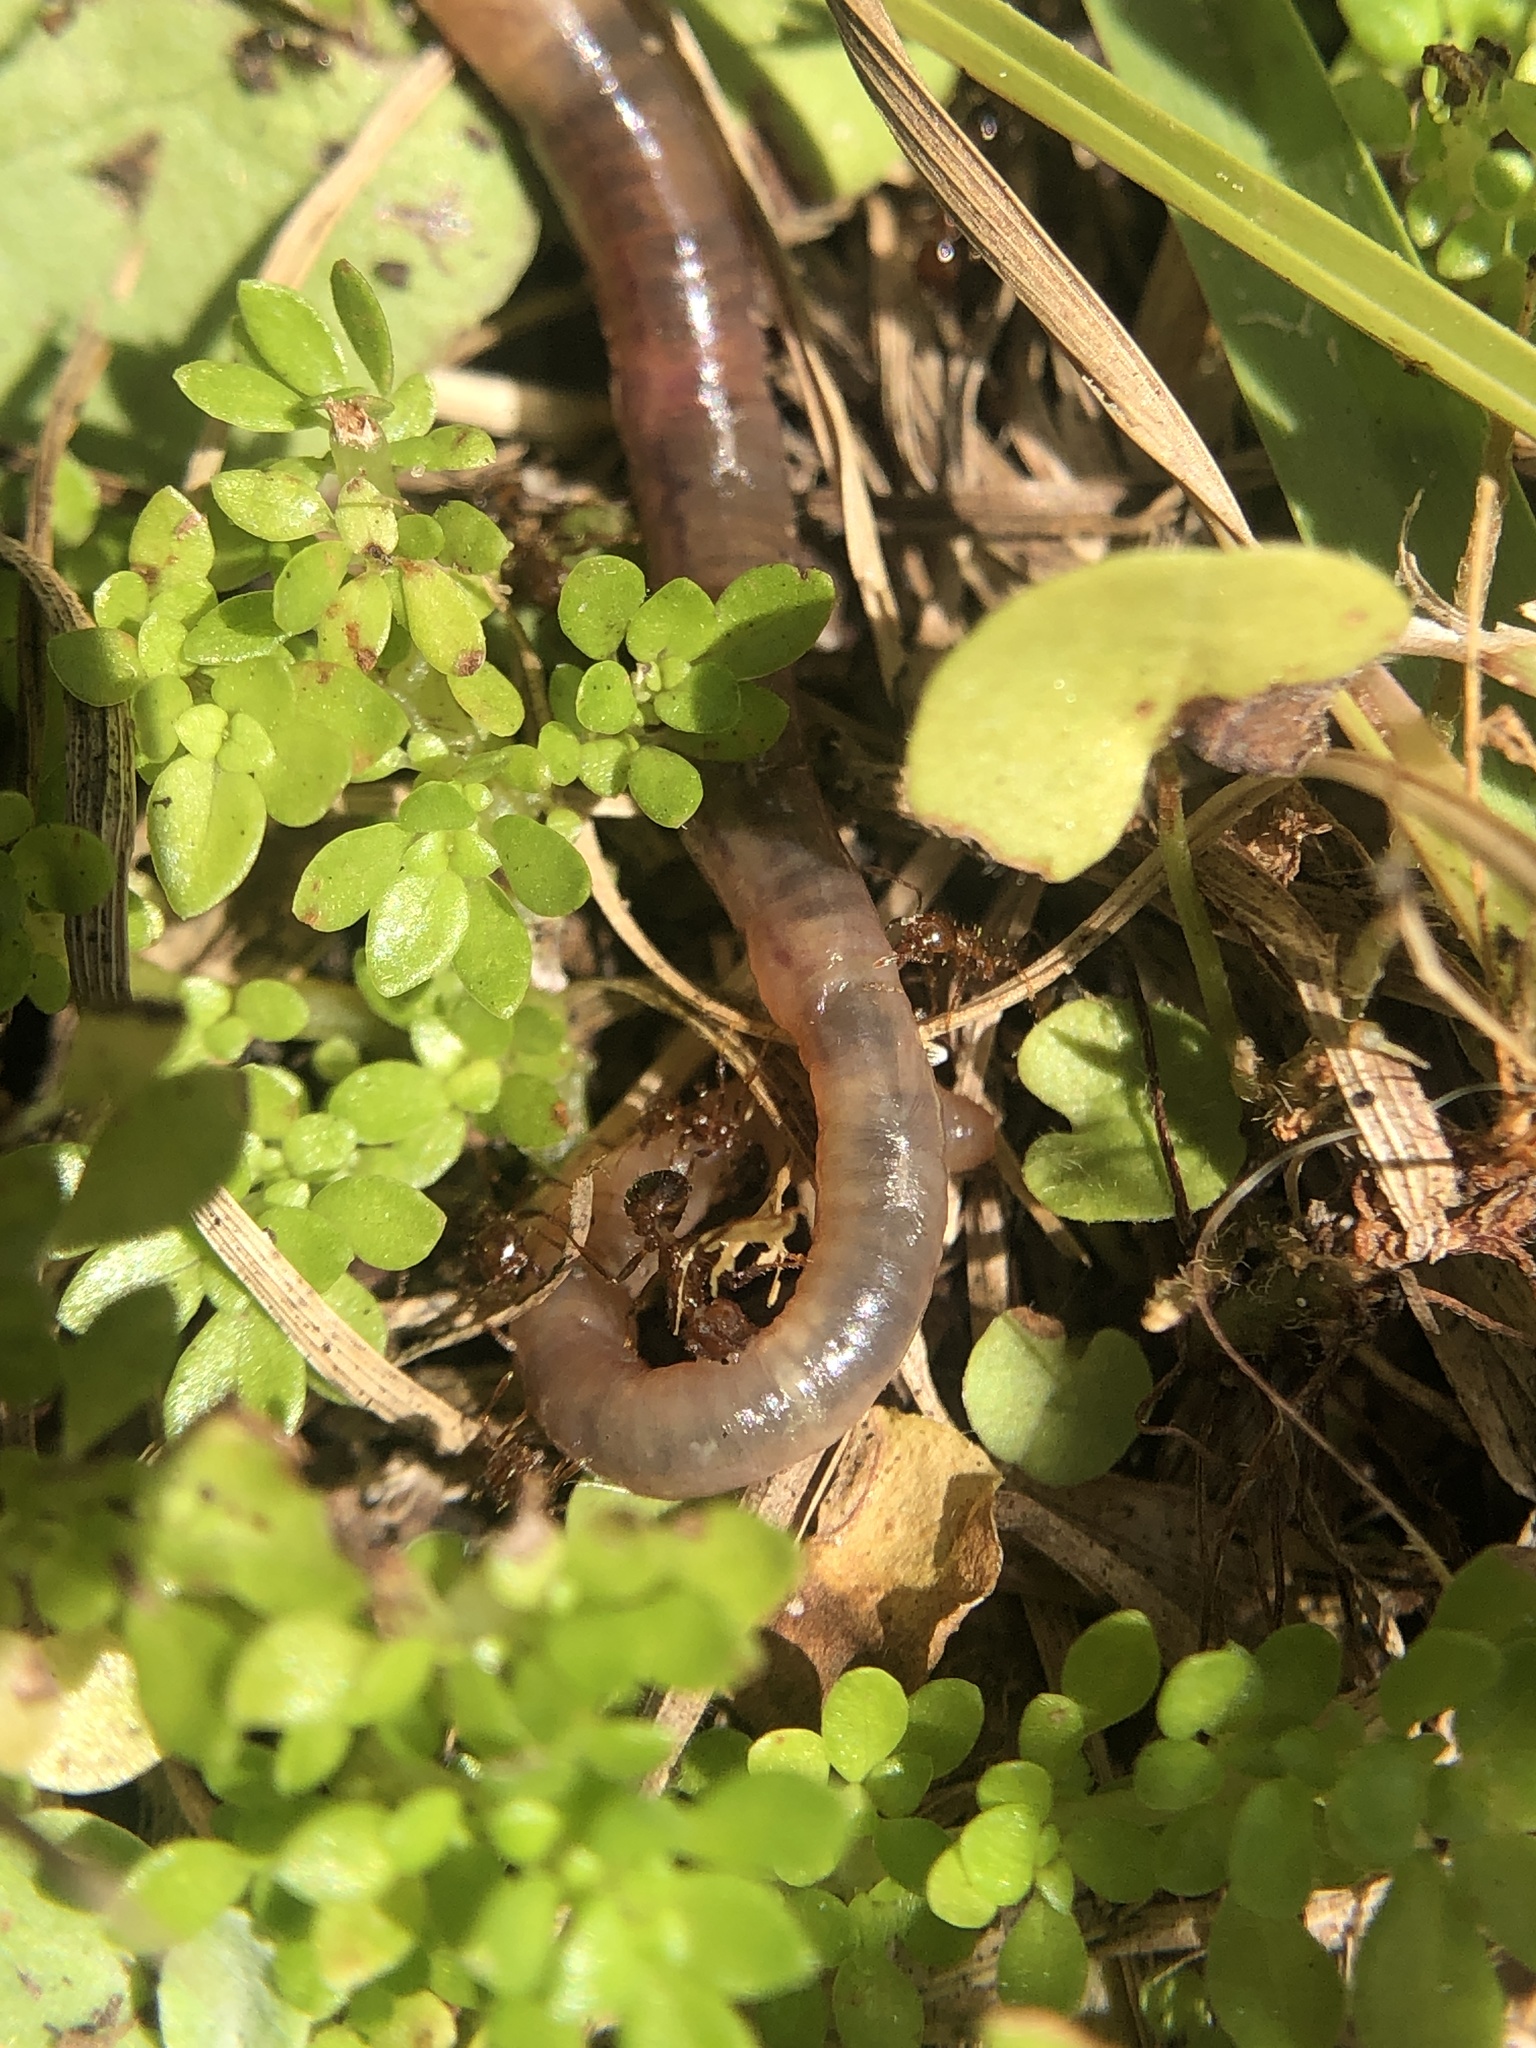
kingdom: Animalia
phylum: Arthropoda
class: Insecta
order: Hymenoptera
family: Formicidae
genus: Solenopsis
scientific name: Solenopsis invicta
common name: Red imported fire ant
